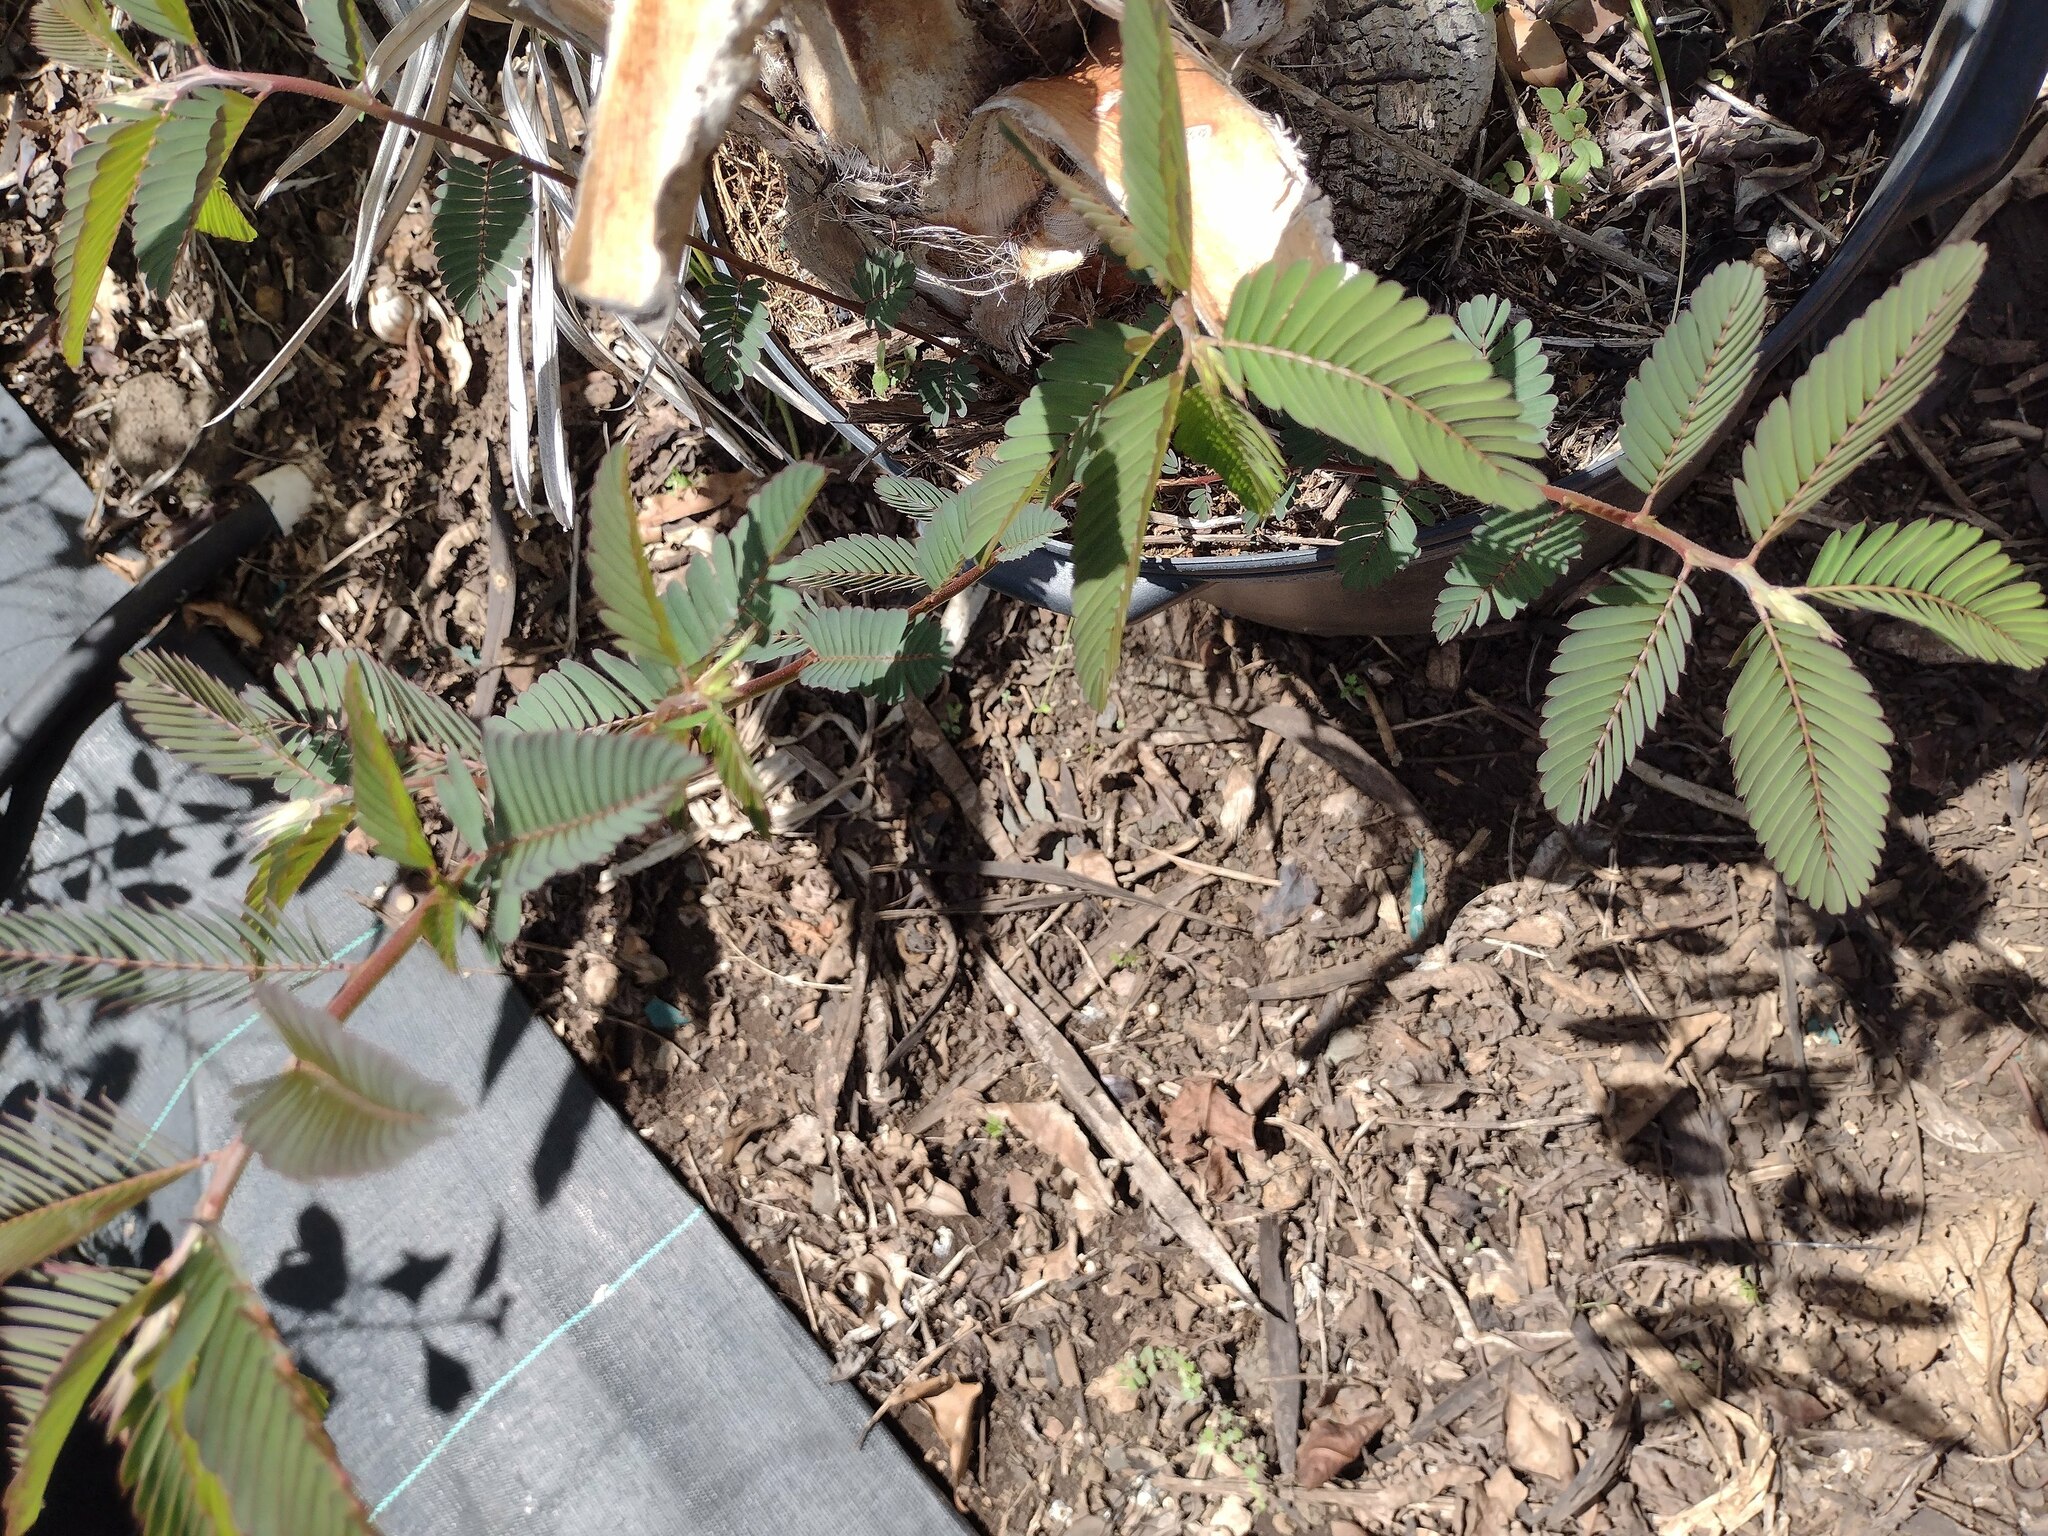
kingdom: Plantae
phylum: Tracheophyta
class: Magnoliopsida
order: Fabales
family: Fabaceae
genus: Chamaecrista
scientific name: Chamaecrista nictitans
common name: Sensitive cassia
